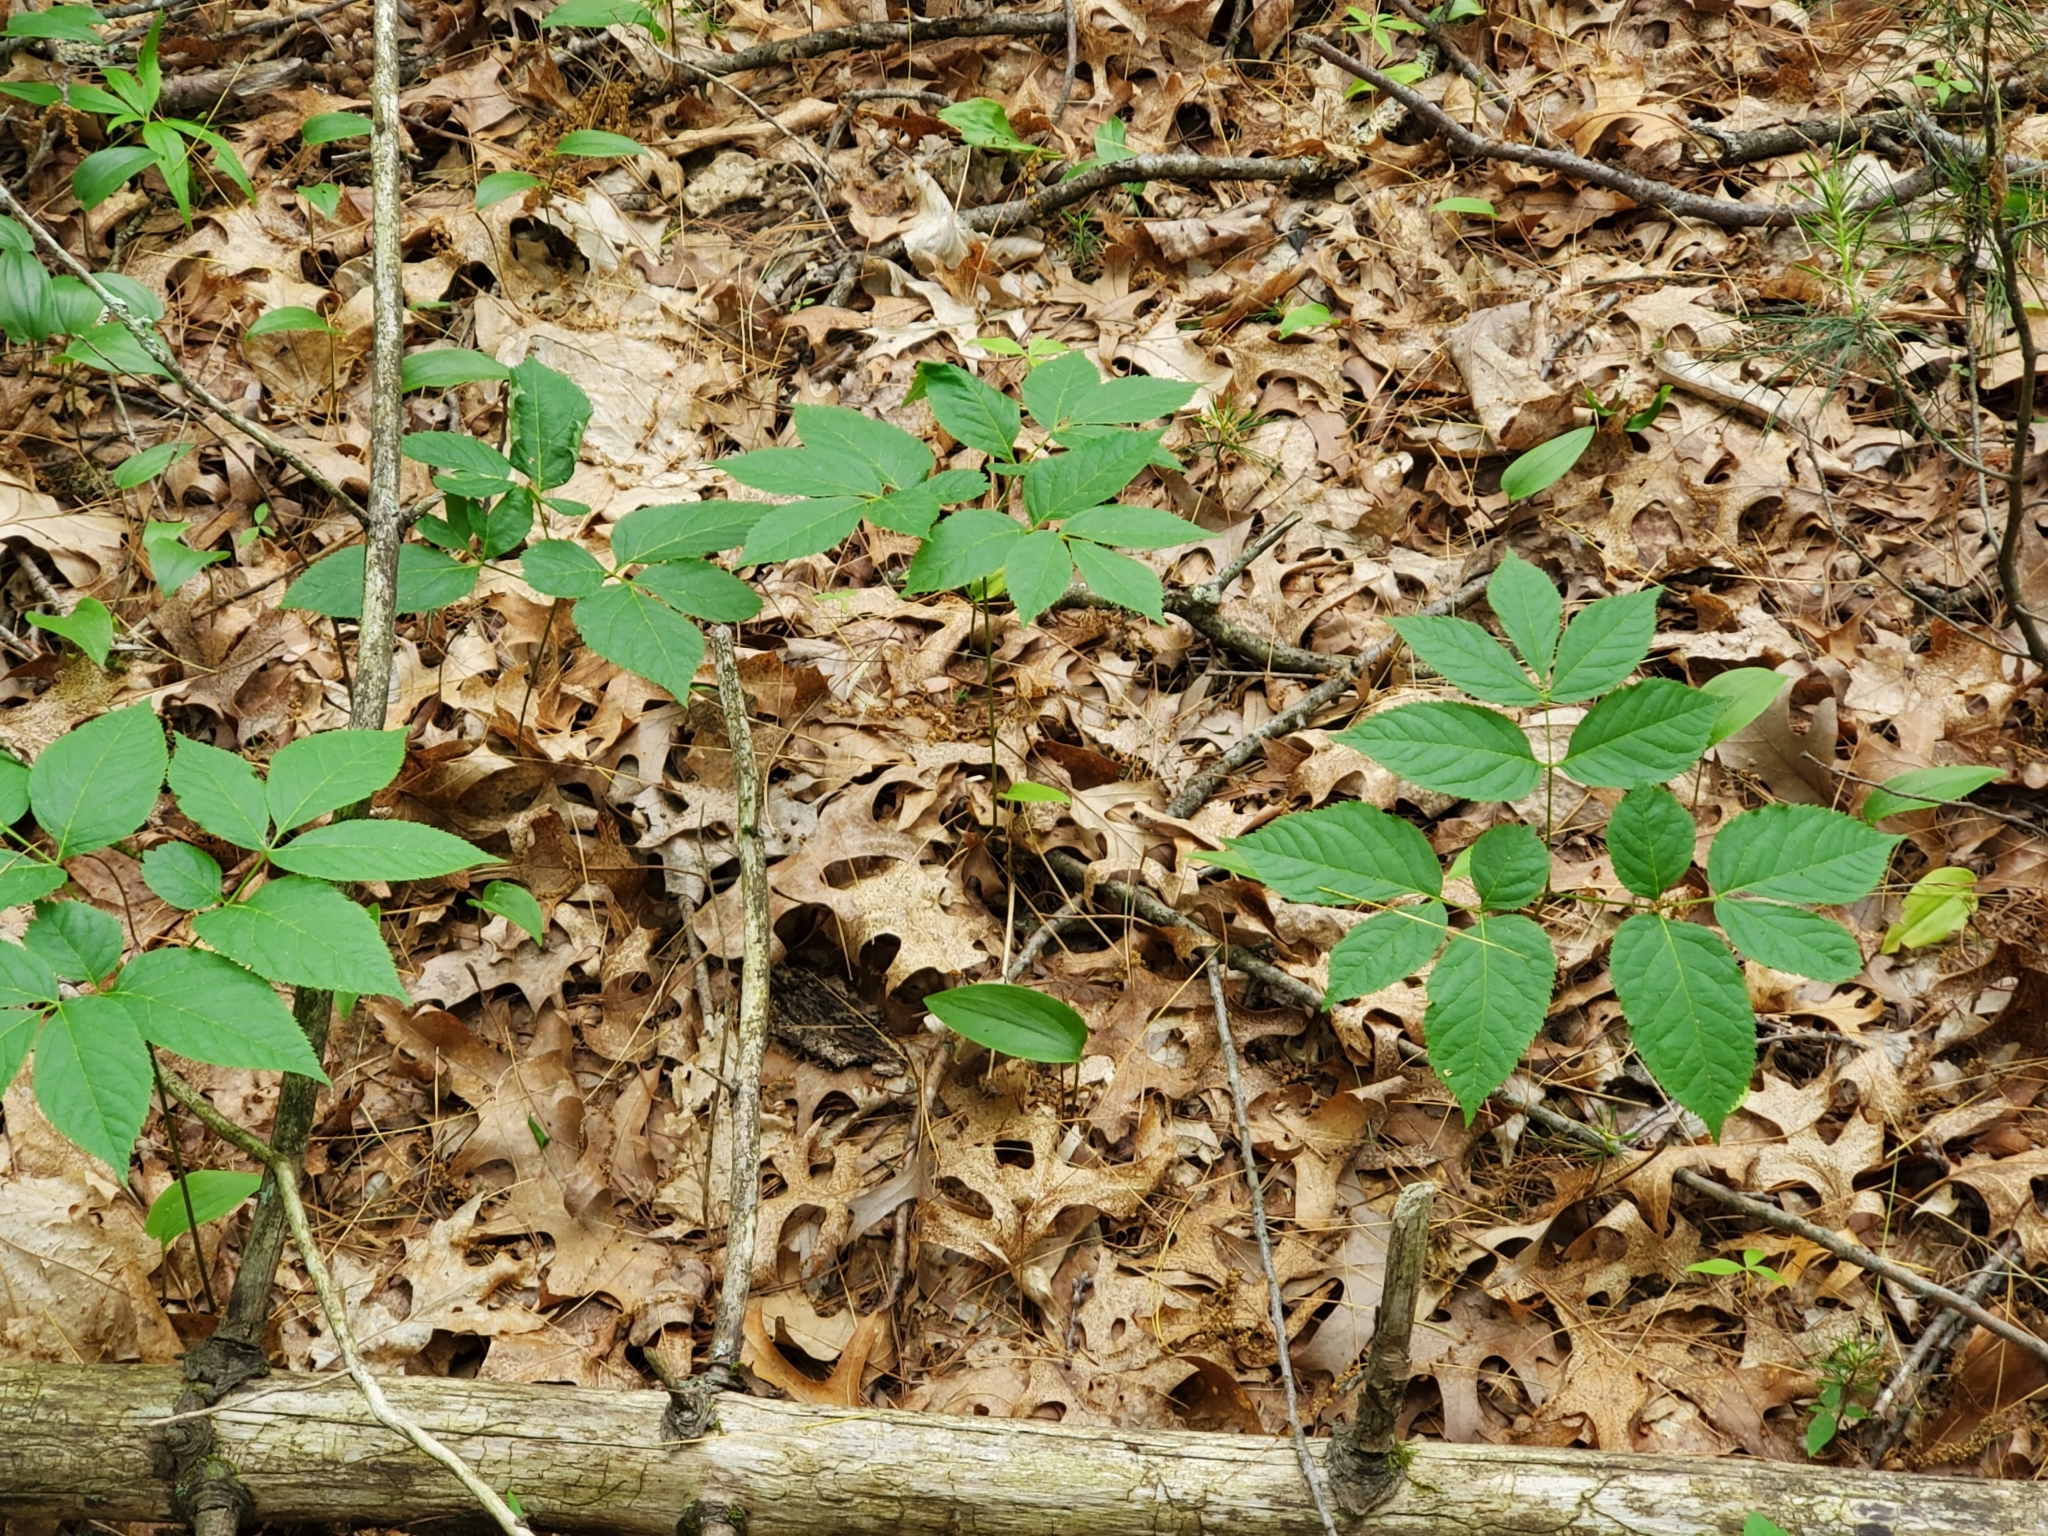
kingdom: Plantae
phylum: Tracheophyta
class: Magnoliopsida
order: Apiales
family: Araliaceae
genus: Aralia
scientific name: Aralia nudicaulis
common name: Wild sarsaparilla
